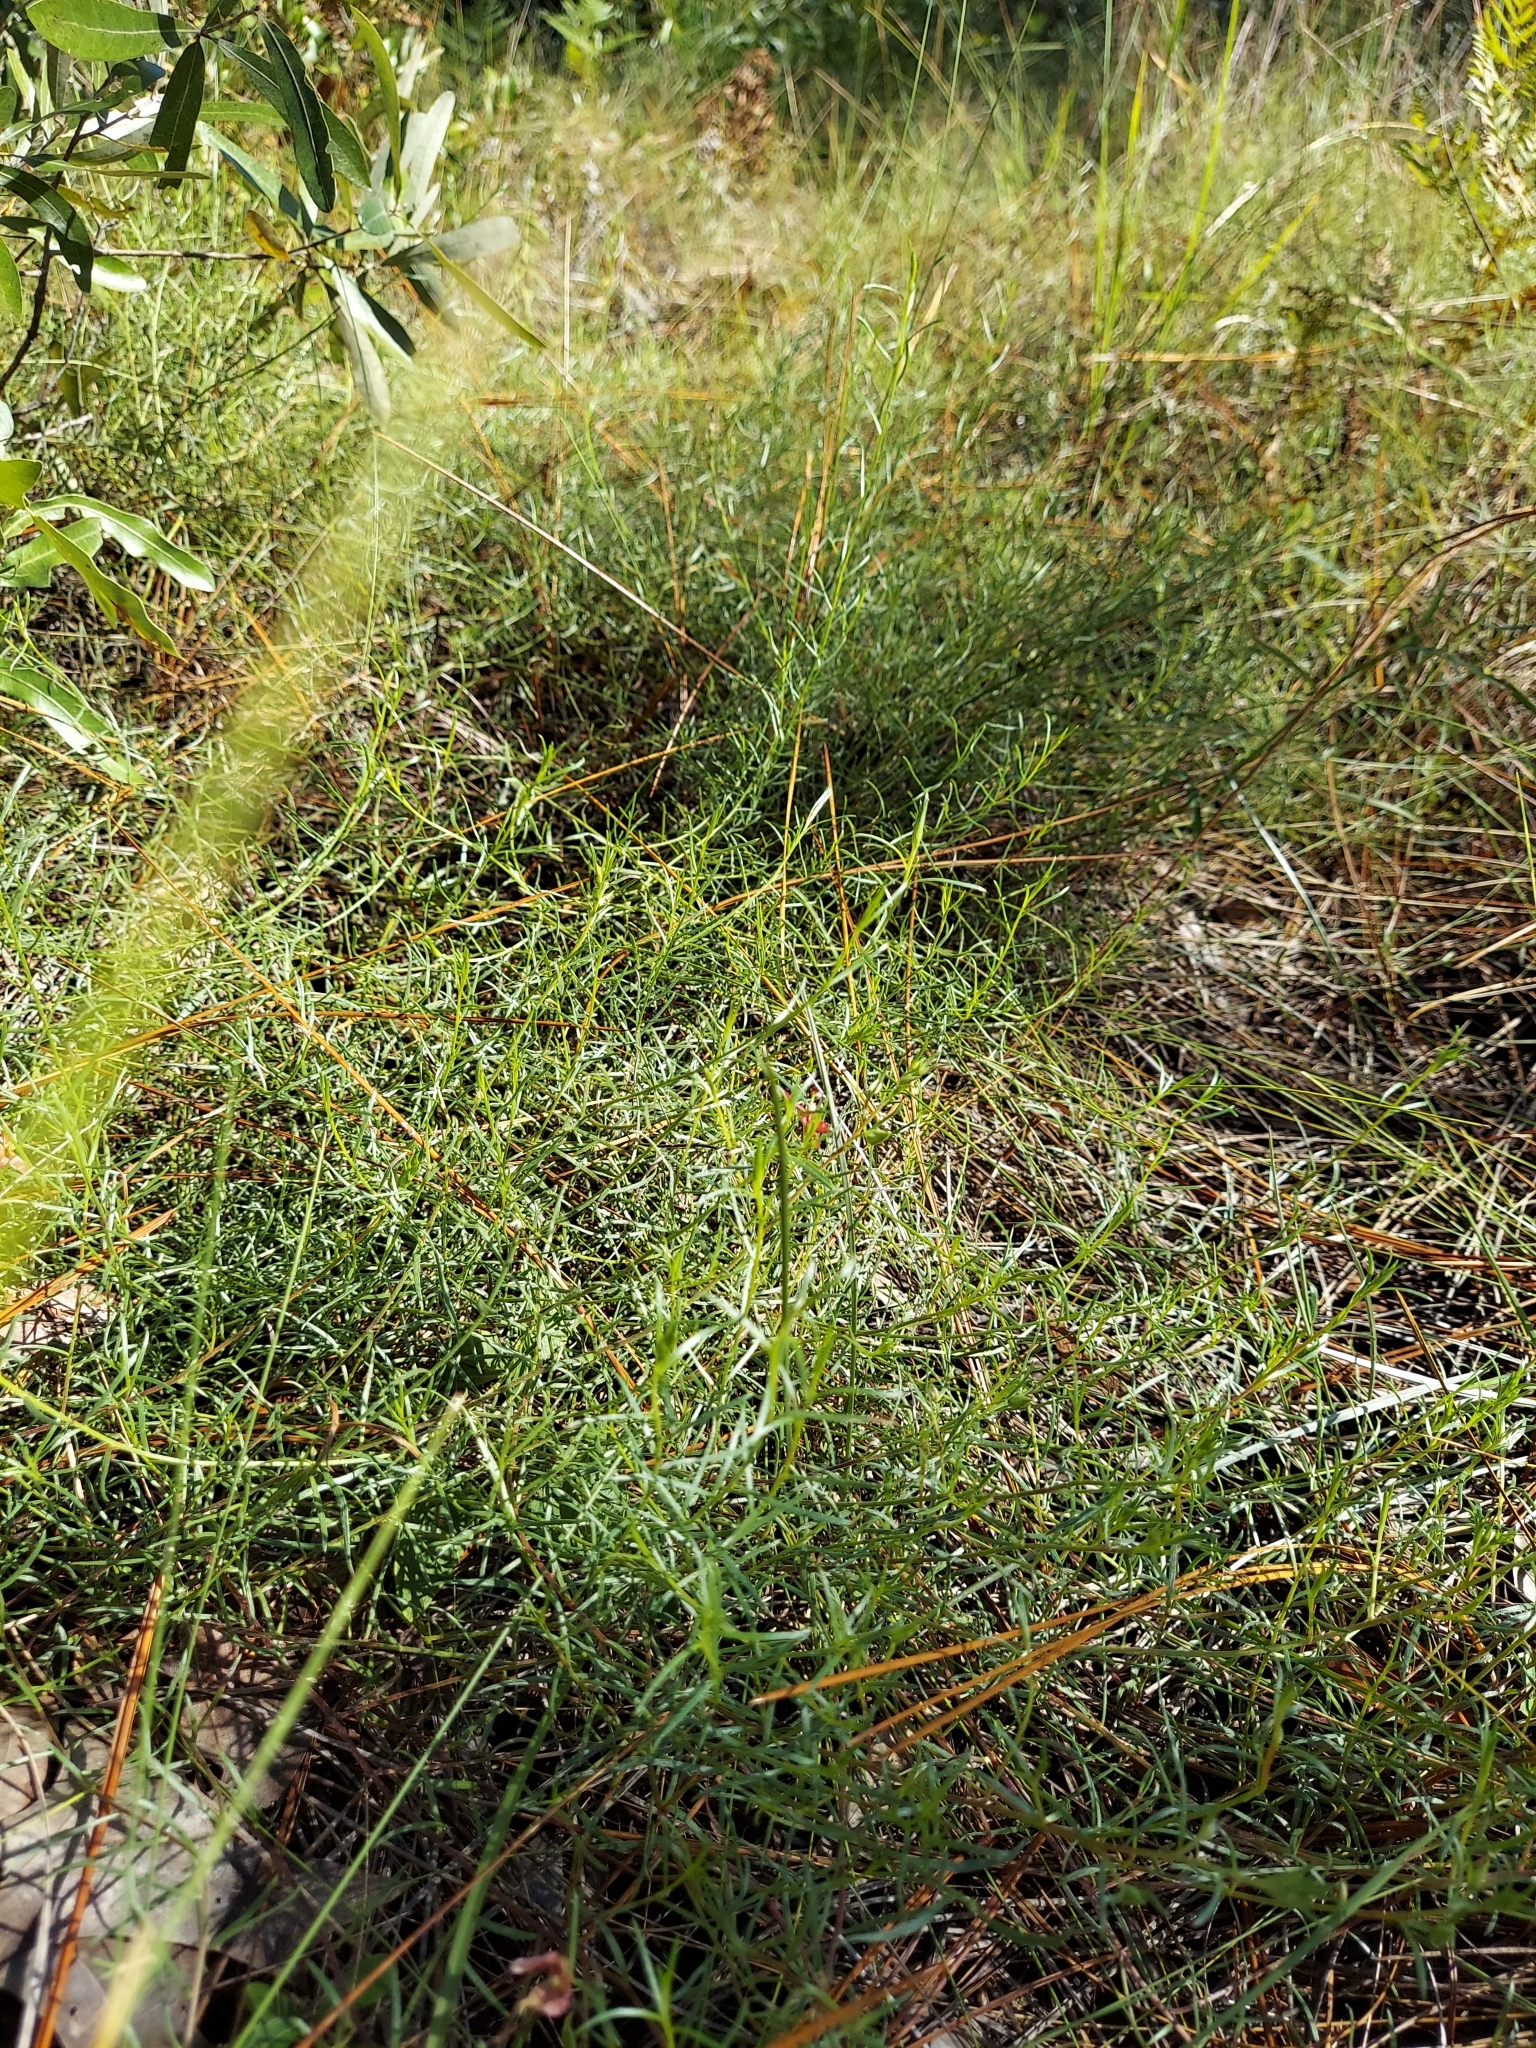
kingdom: Plantae
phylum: Tracheophyta
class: Magnoliopsida
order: Zygophyllales
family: Krameriaceae
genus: Krameria
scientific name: Krameria lanceolata
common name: Ratany
